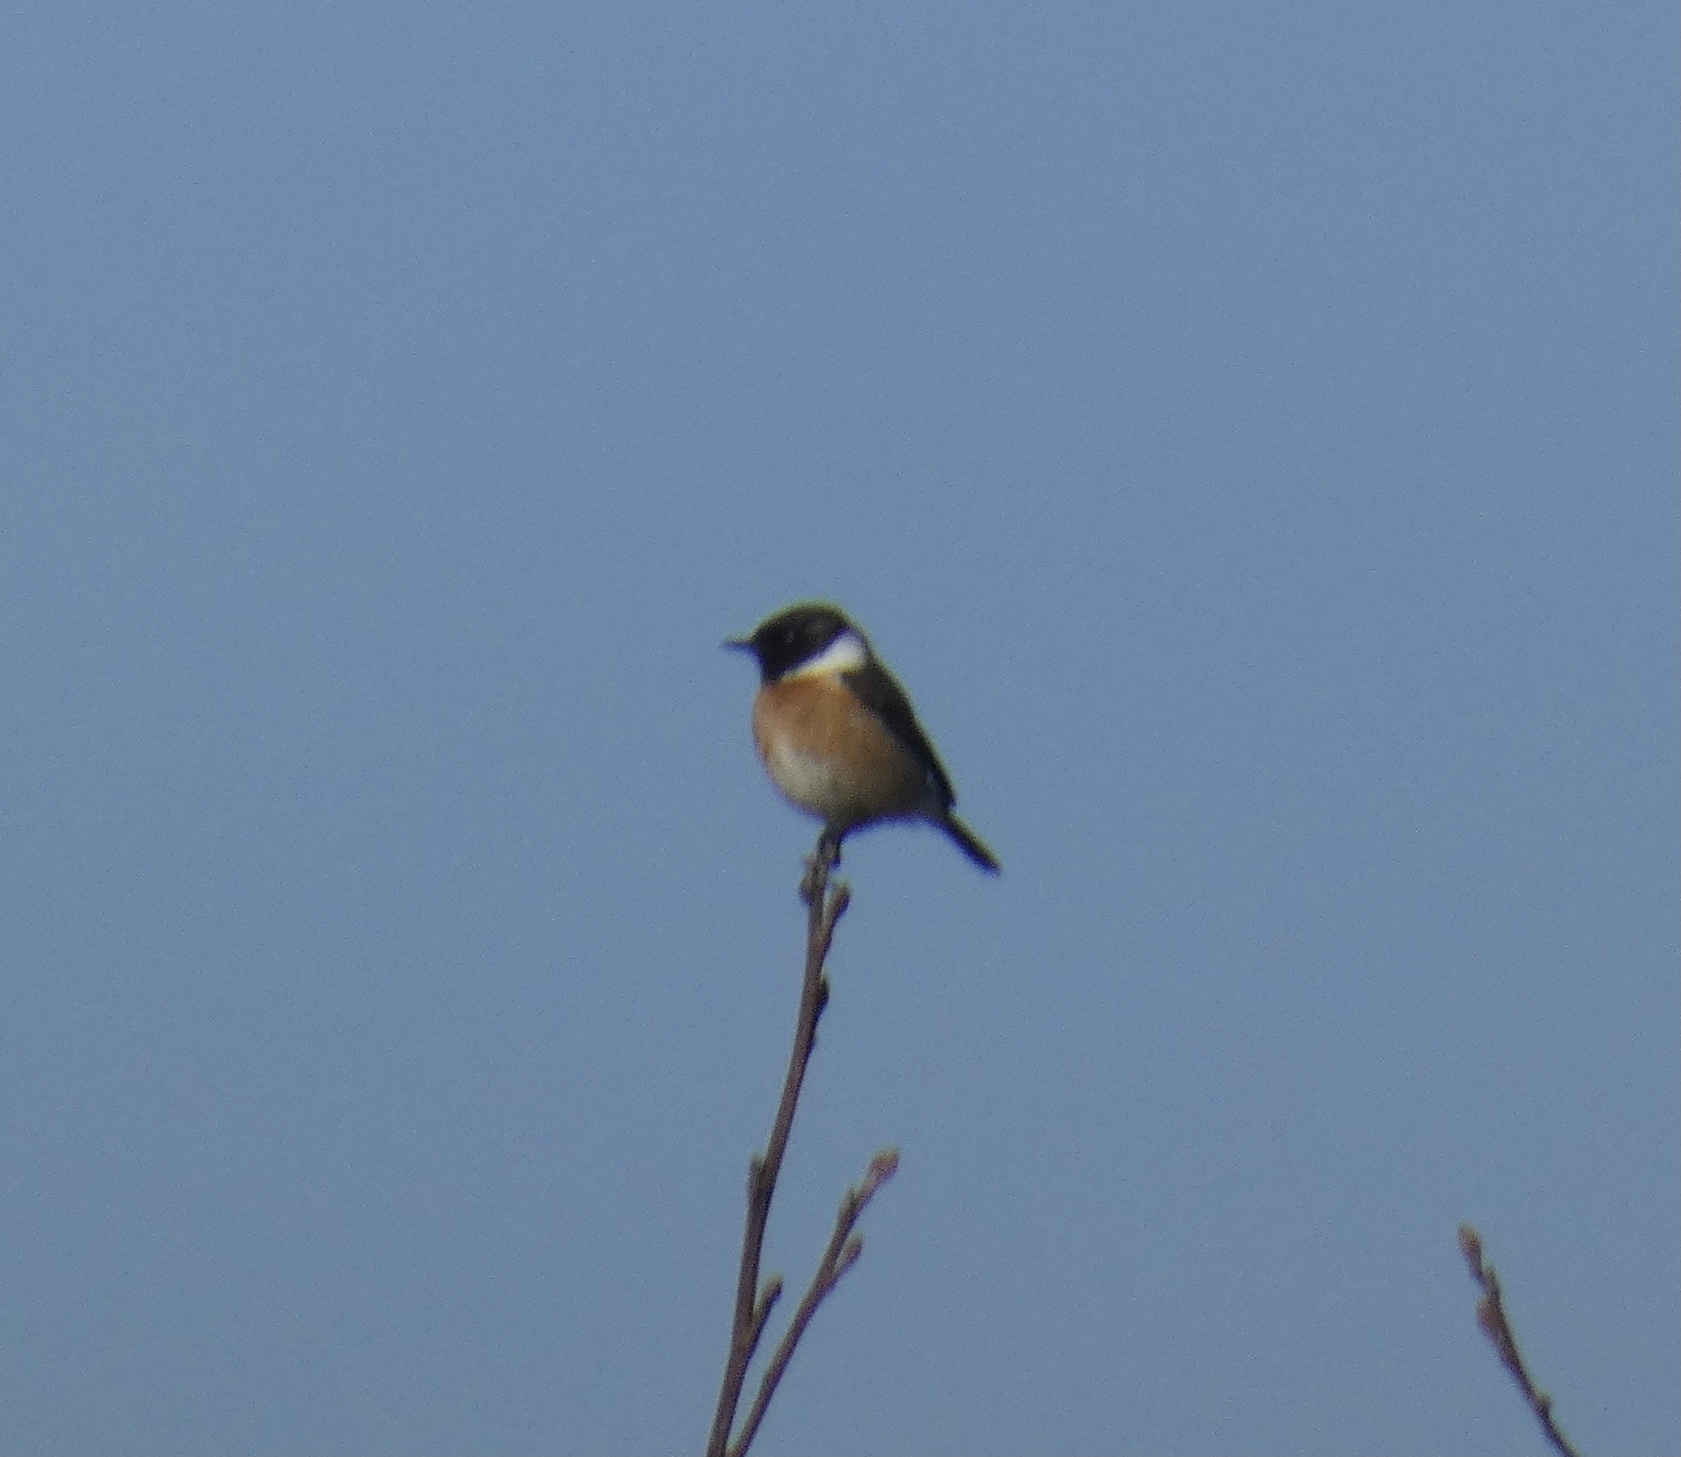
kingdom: Animalia
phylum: Chordata
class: Aves
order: Passeriformes
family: Muscicapidae
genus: Saxicola
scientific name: Saxicola rubicola
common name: European stonechat
